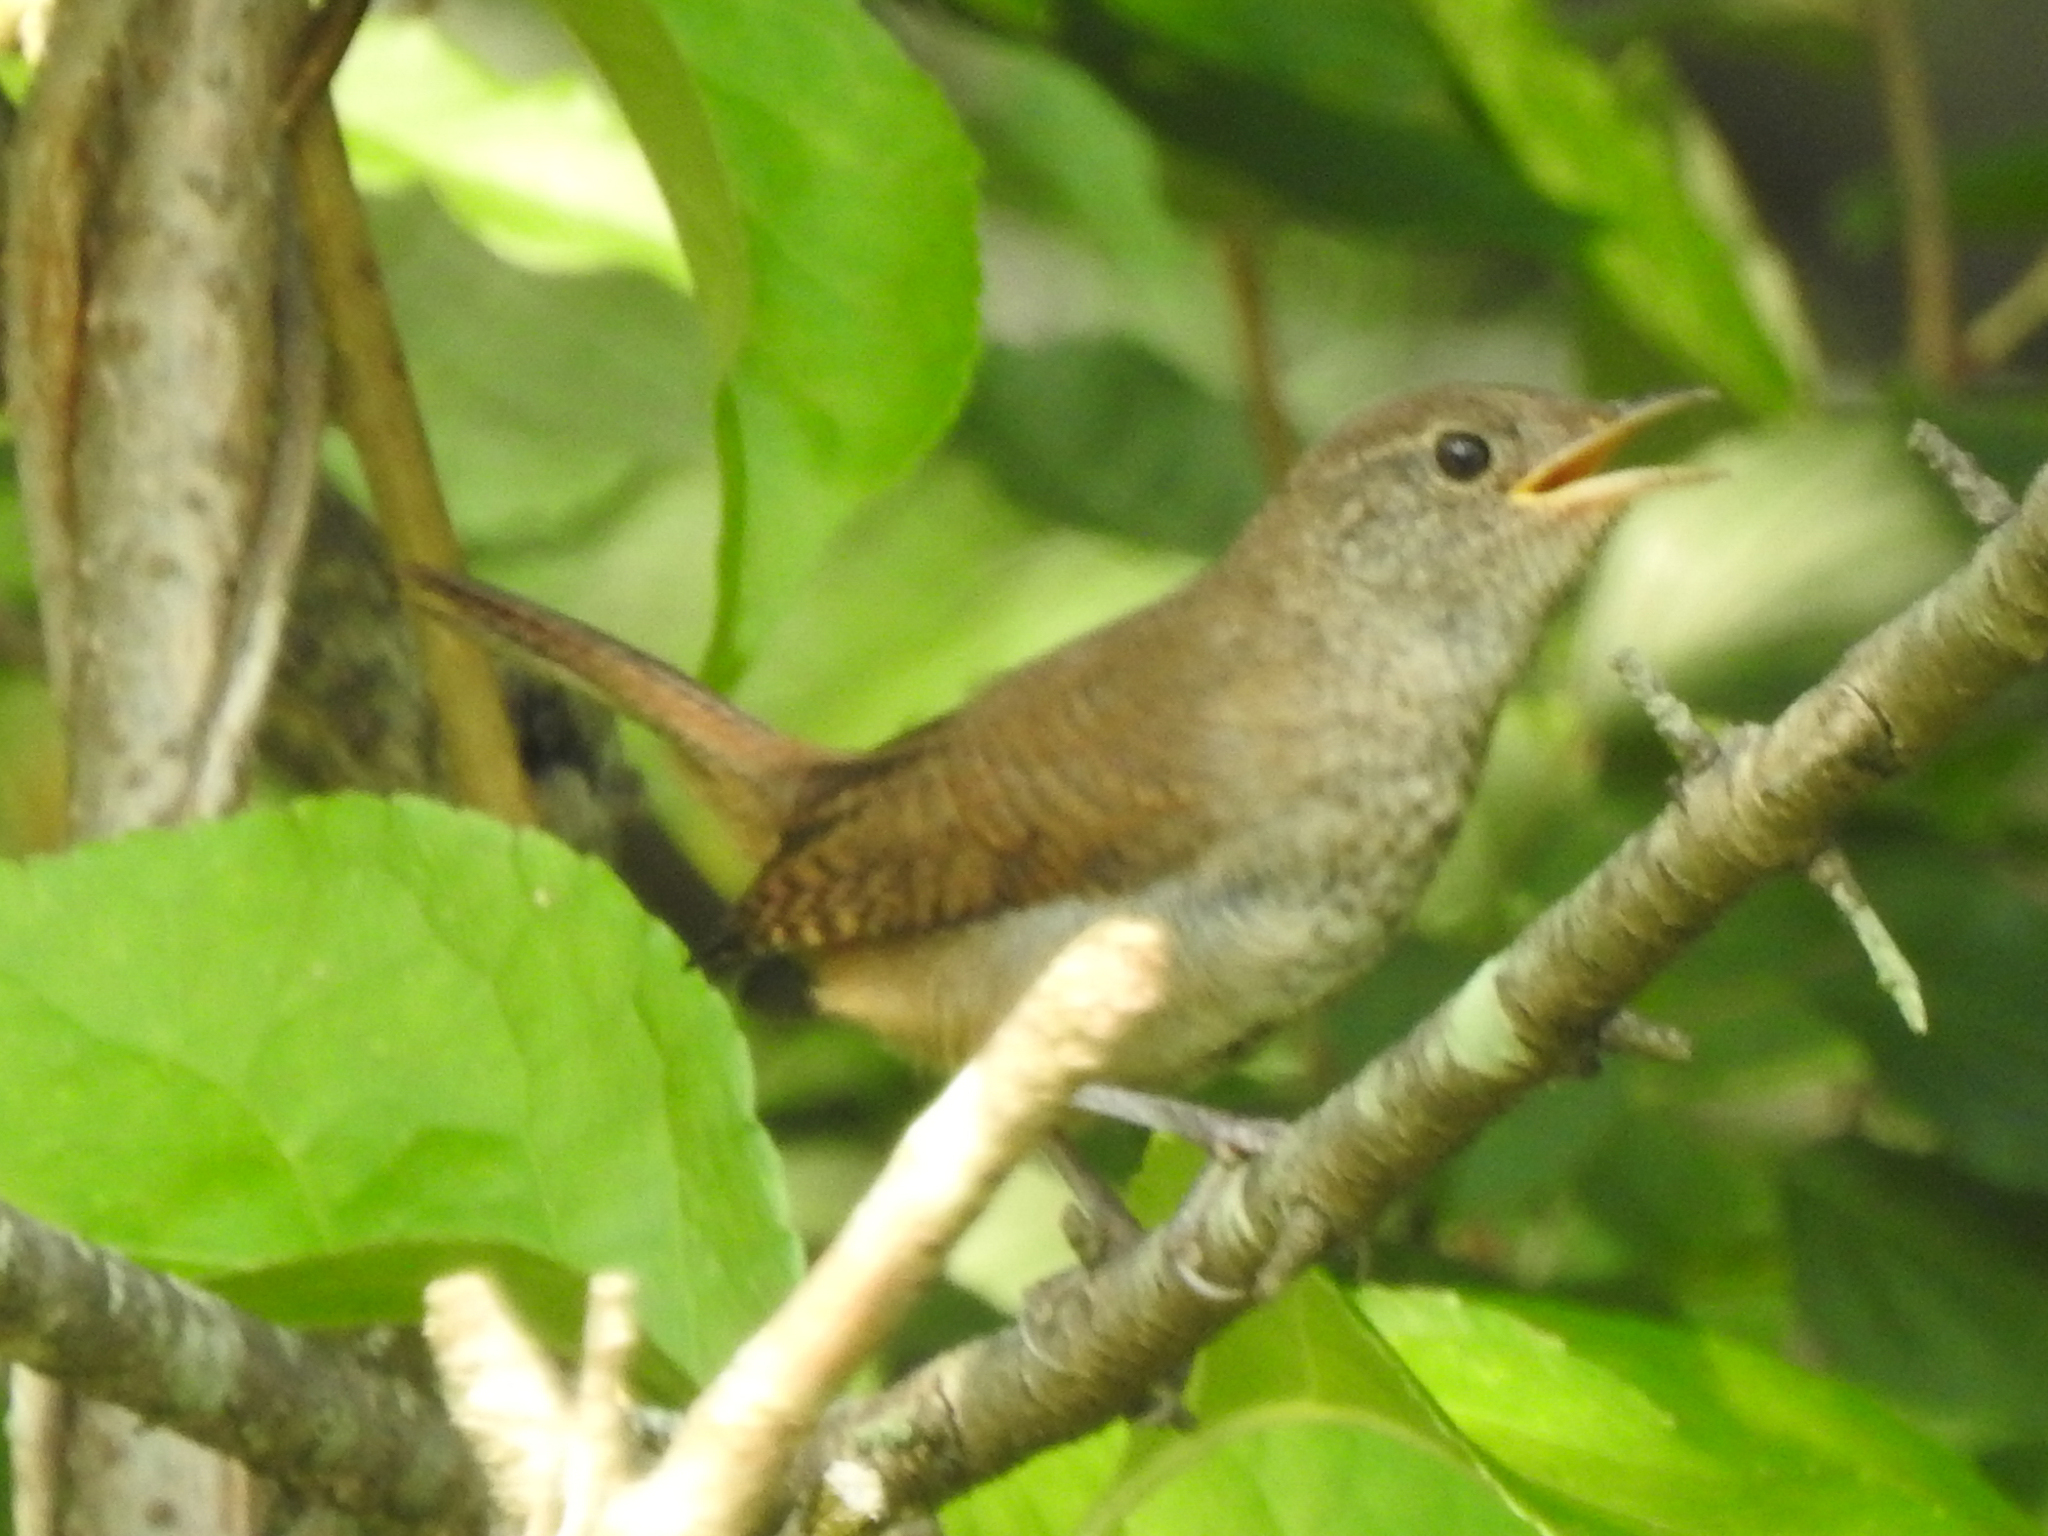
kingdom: Animalia
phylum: Chordata
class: Aves
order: Passeriformes
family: Troglodytidae
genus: Troglodytes
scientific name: Troglodytes aedon
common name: House wren
